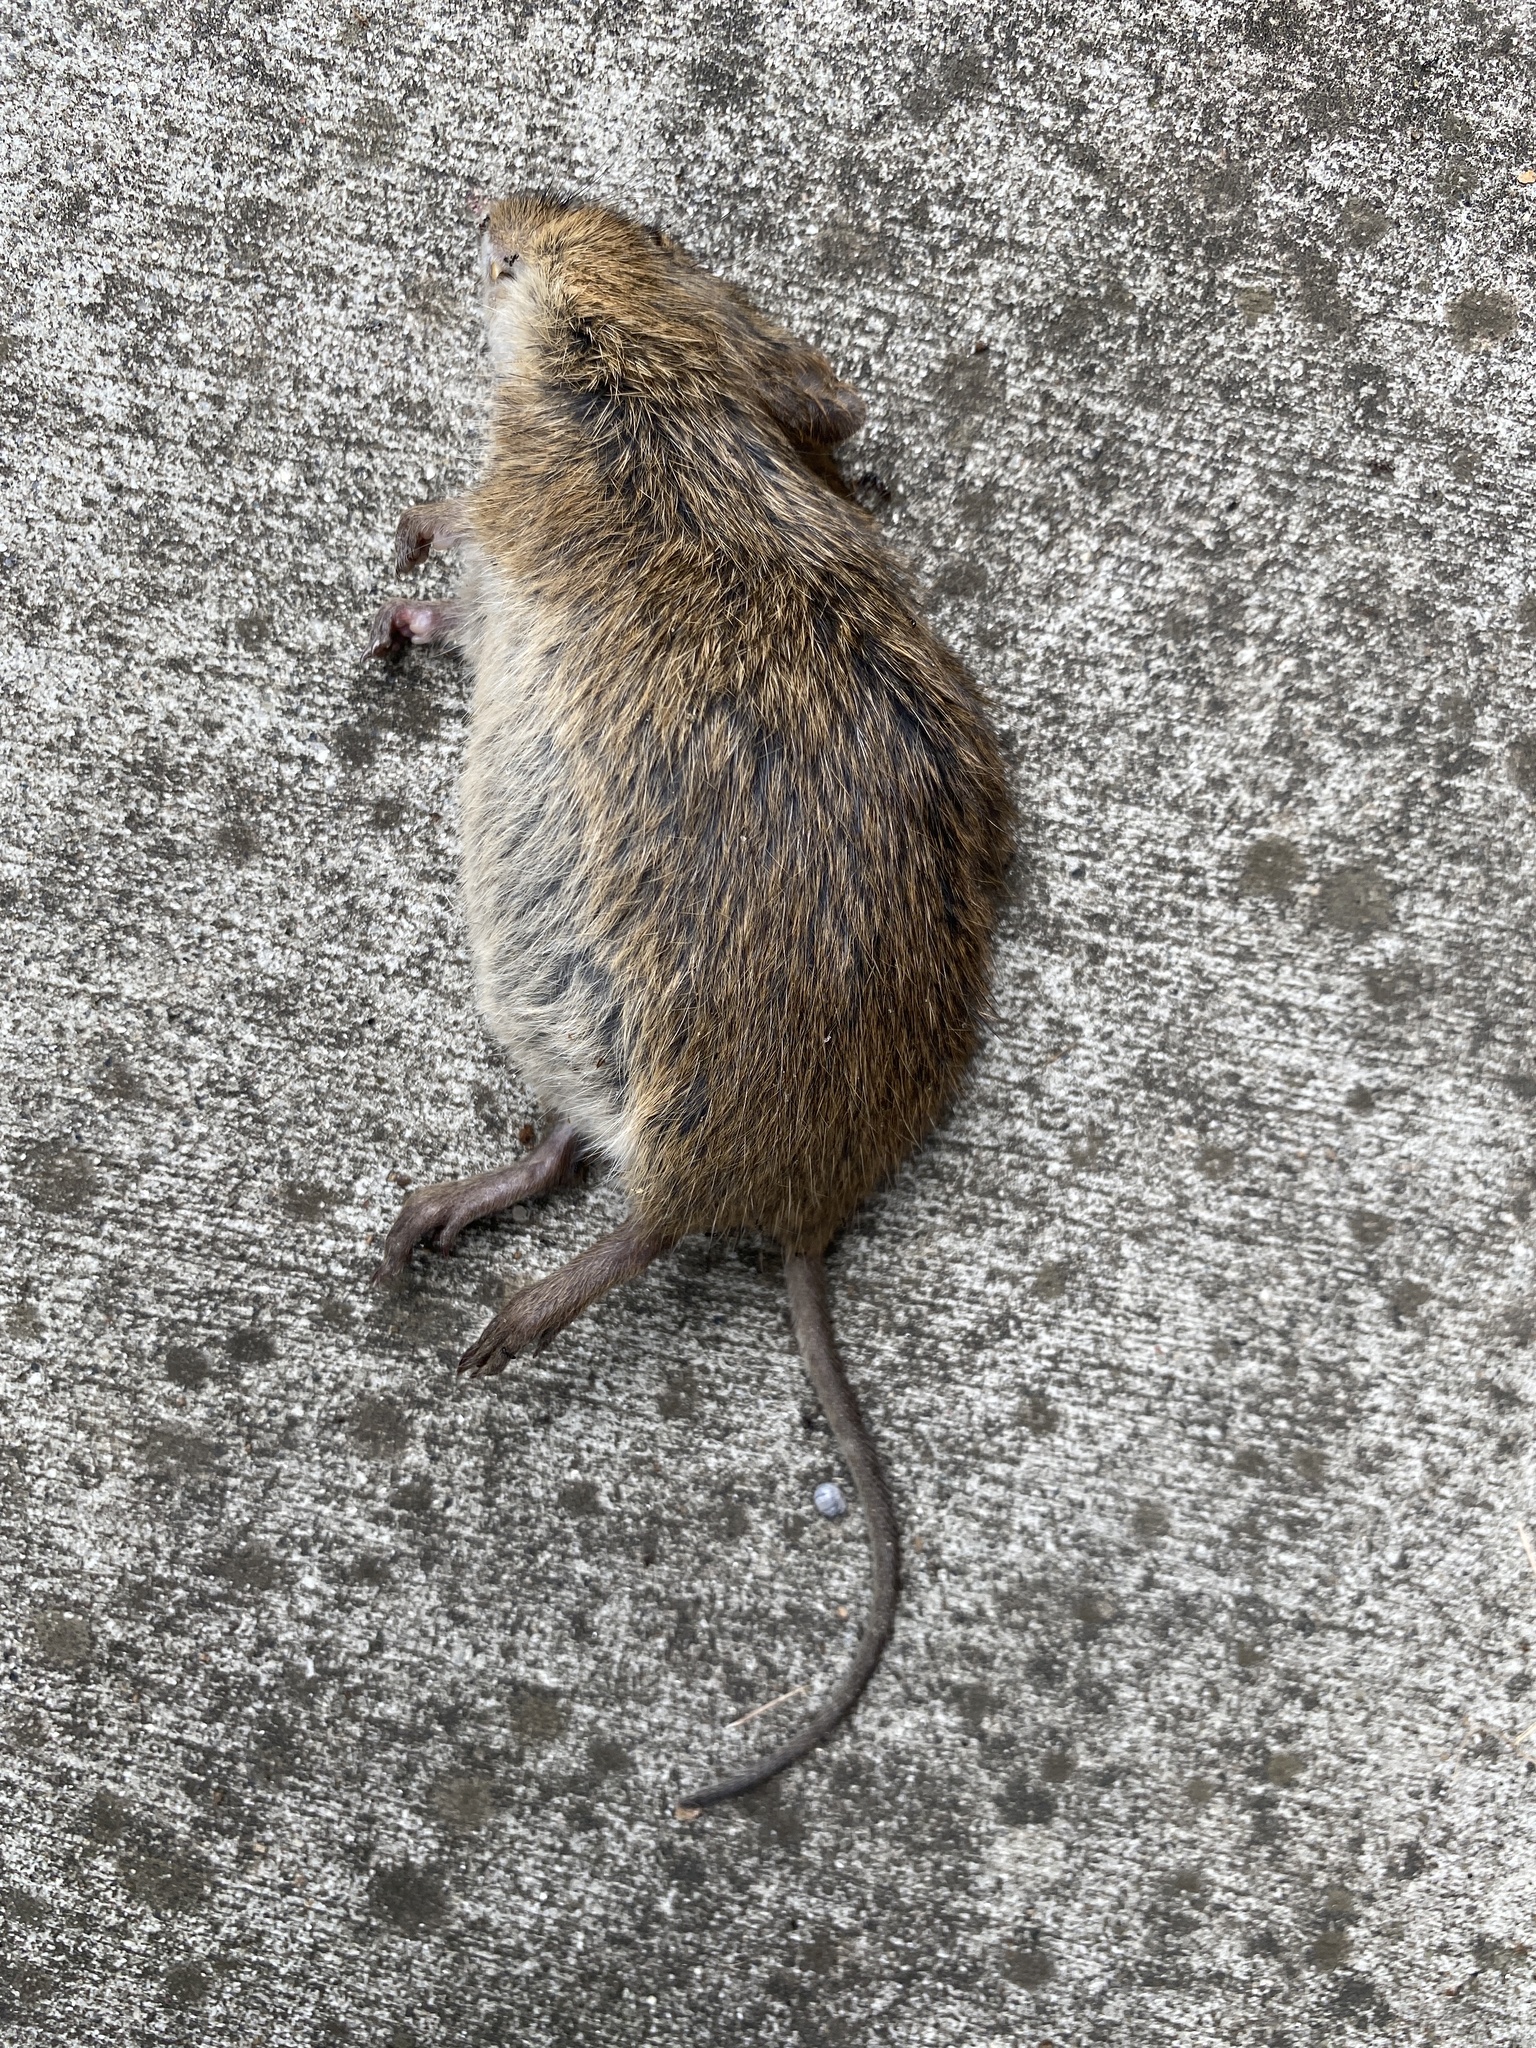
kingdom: Animalia
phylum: Chordata
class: Mammalia
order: Rodentia
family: Cricetidae
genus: Sigmodon
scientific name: Sigmodon hispidus
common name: Hispid cotton rat
